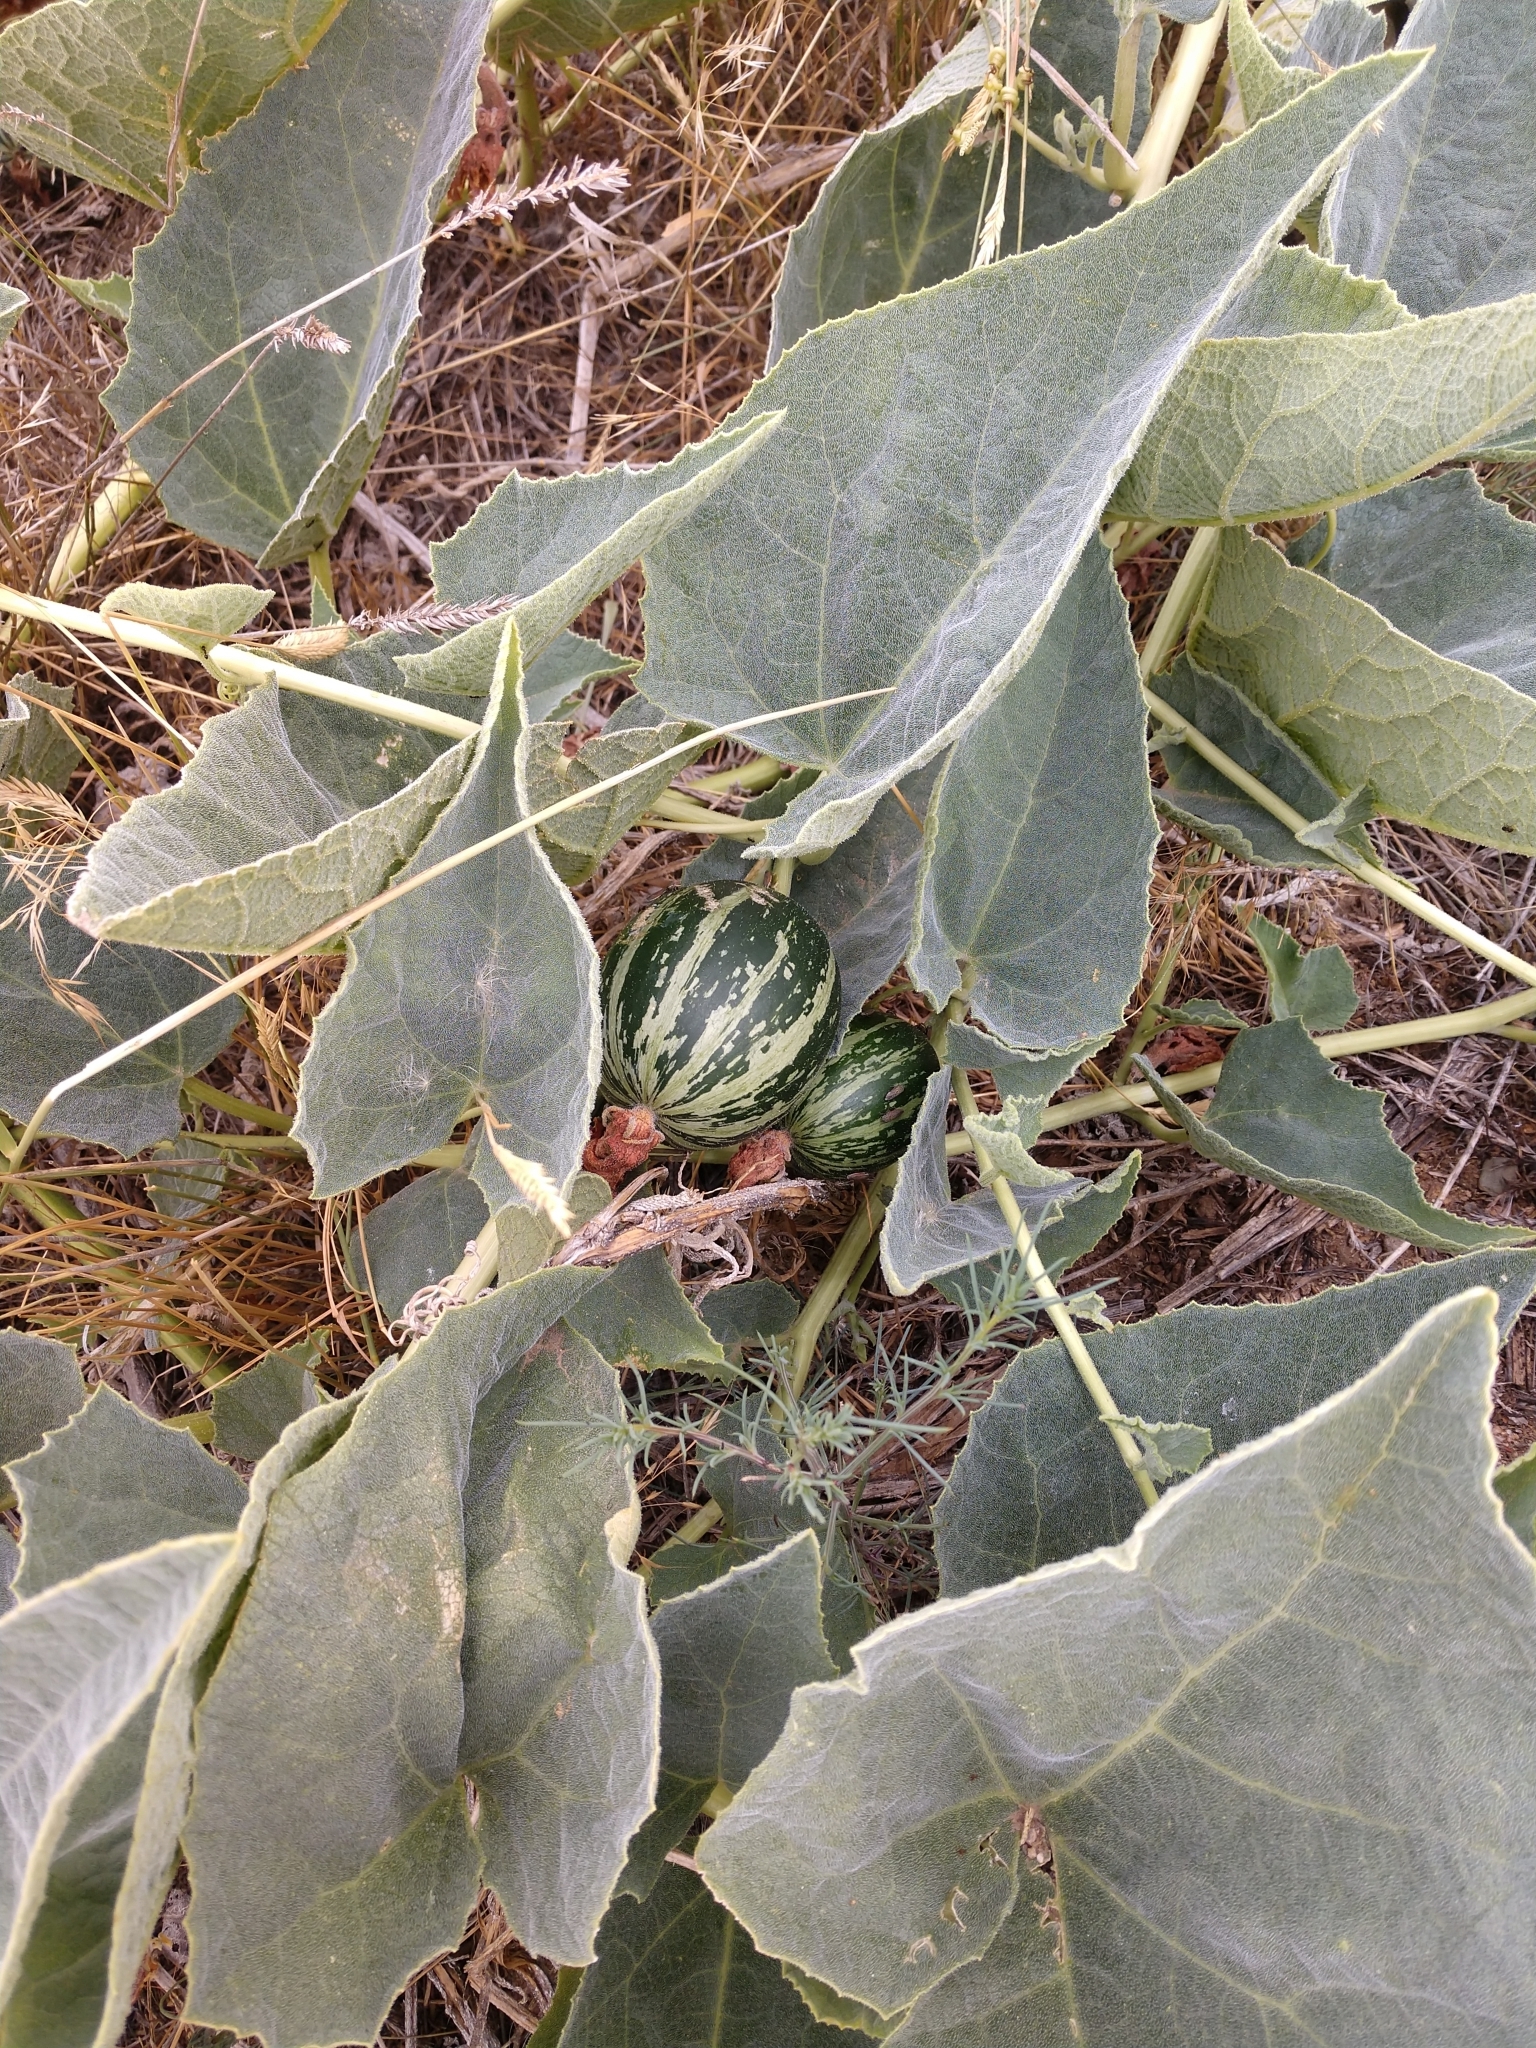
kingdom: Plantae
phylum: Tracheophyta
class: Magnoliopsida
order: Cucurbitales
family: Cucurbitaceae
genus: Cucurbita
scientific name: Cucurbita foetidissima
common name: Buffalo gourd
